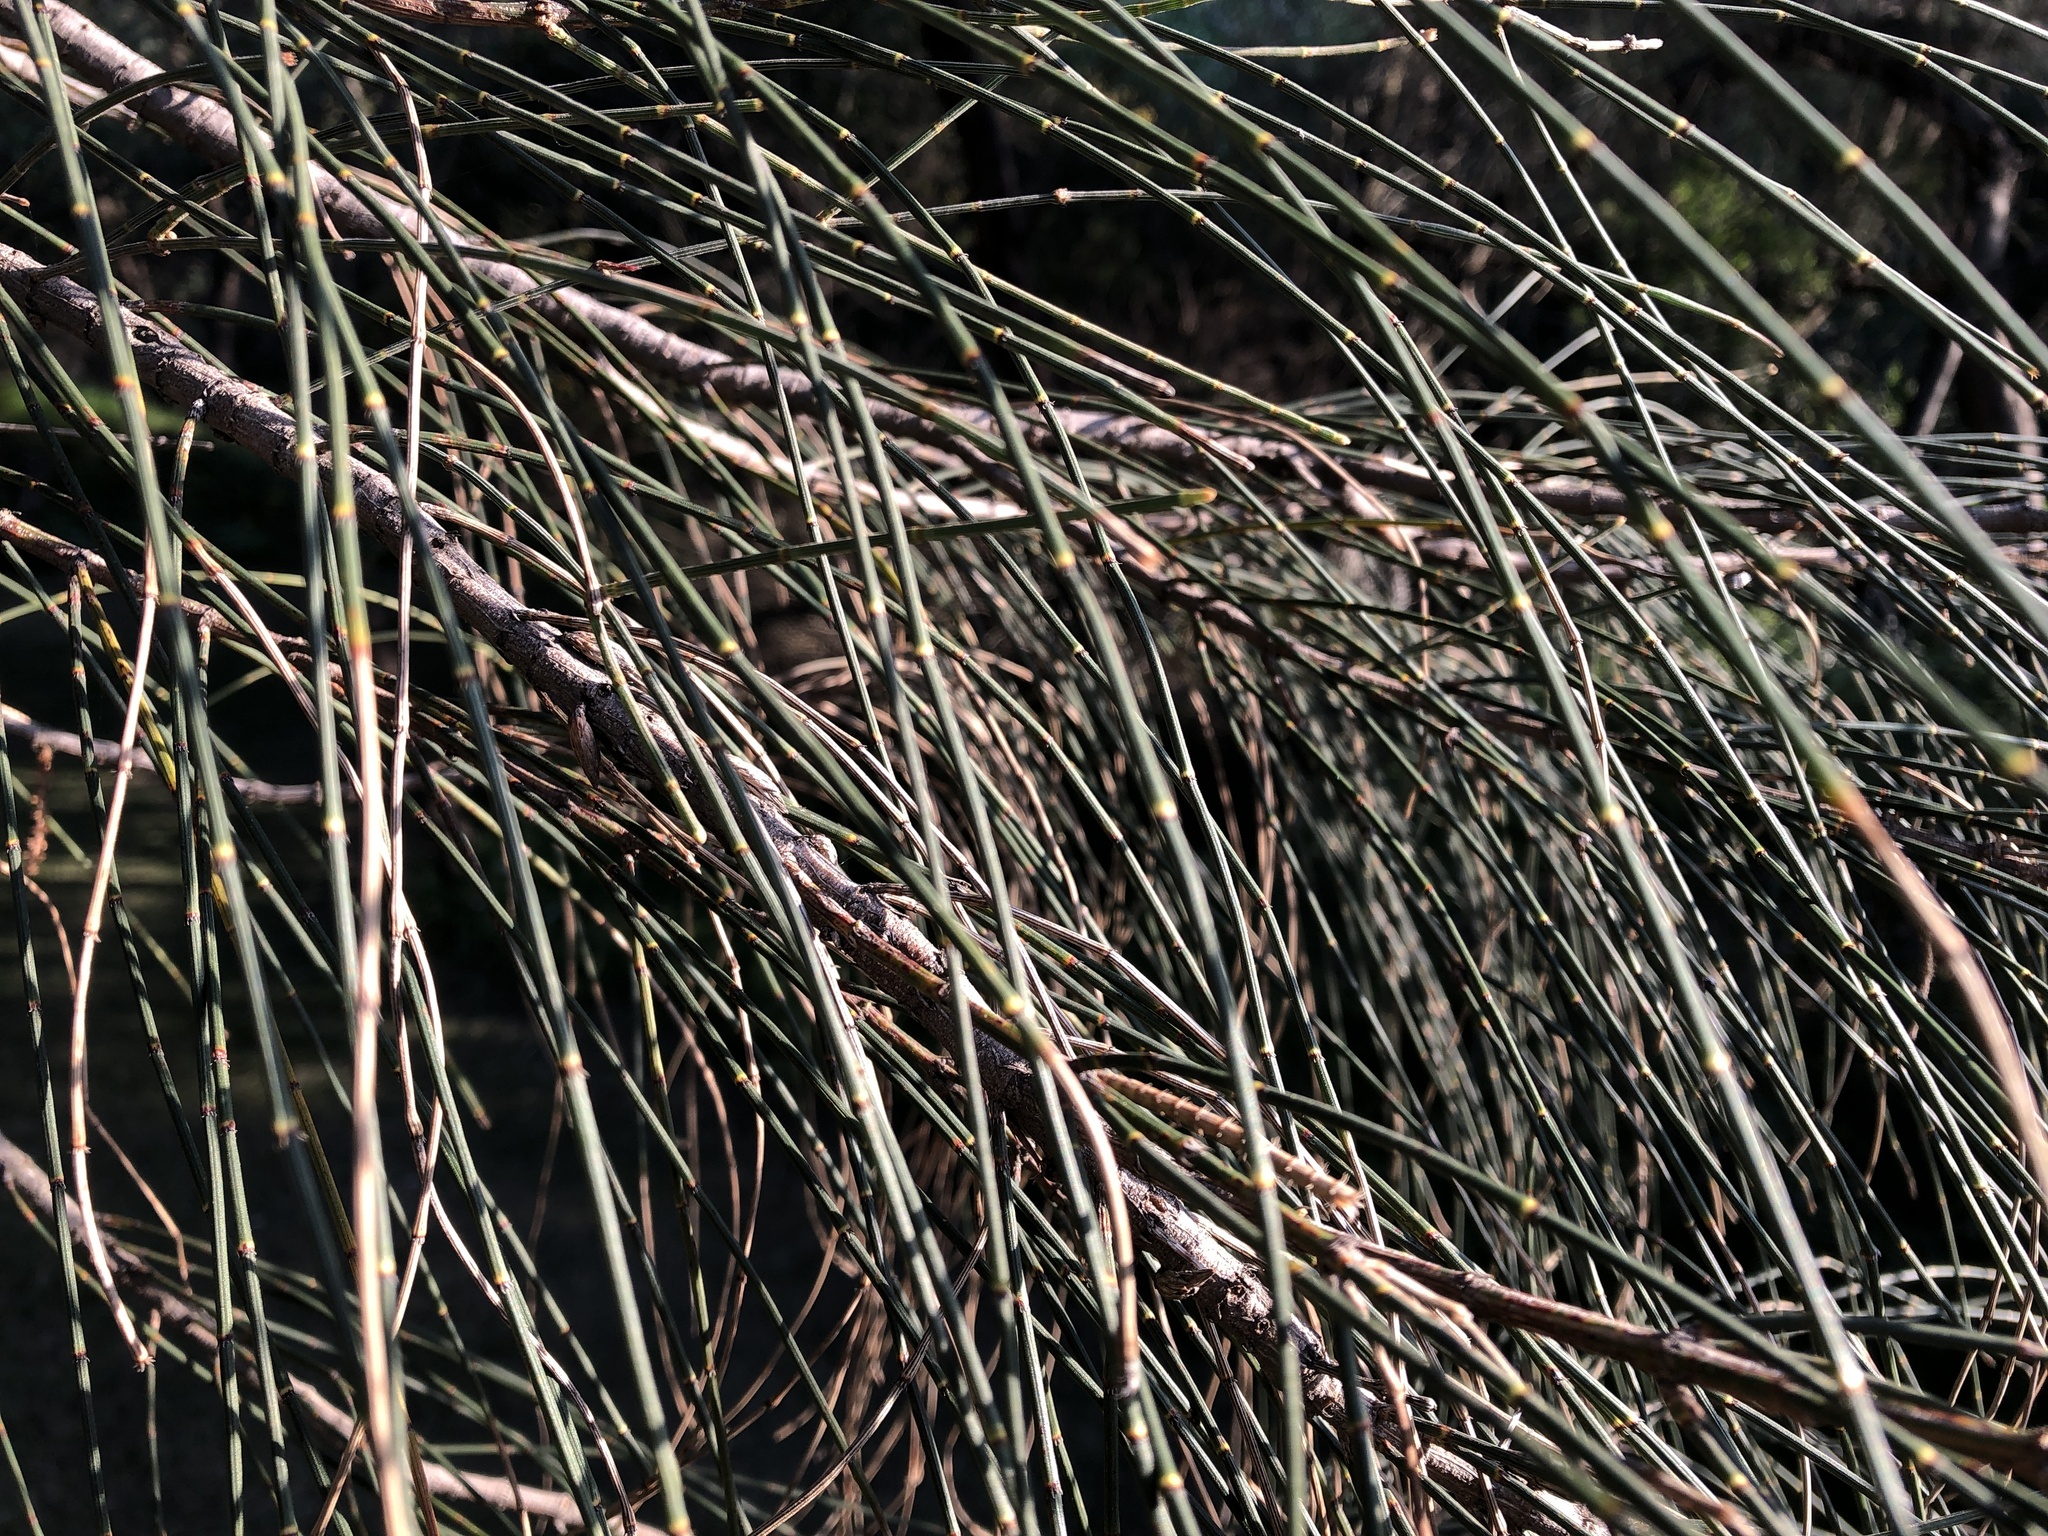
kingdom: Plantae
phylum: Tracheophyta
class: Magnoliopsida
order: Fagales
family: Casuarinaceae
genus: Allocasuarina
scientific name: Allocasuarina verticillata
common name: Drooping she-oak
